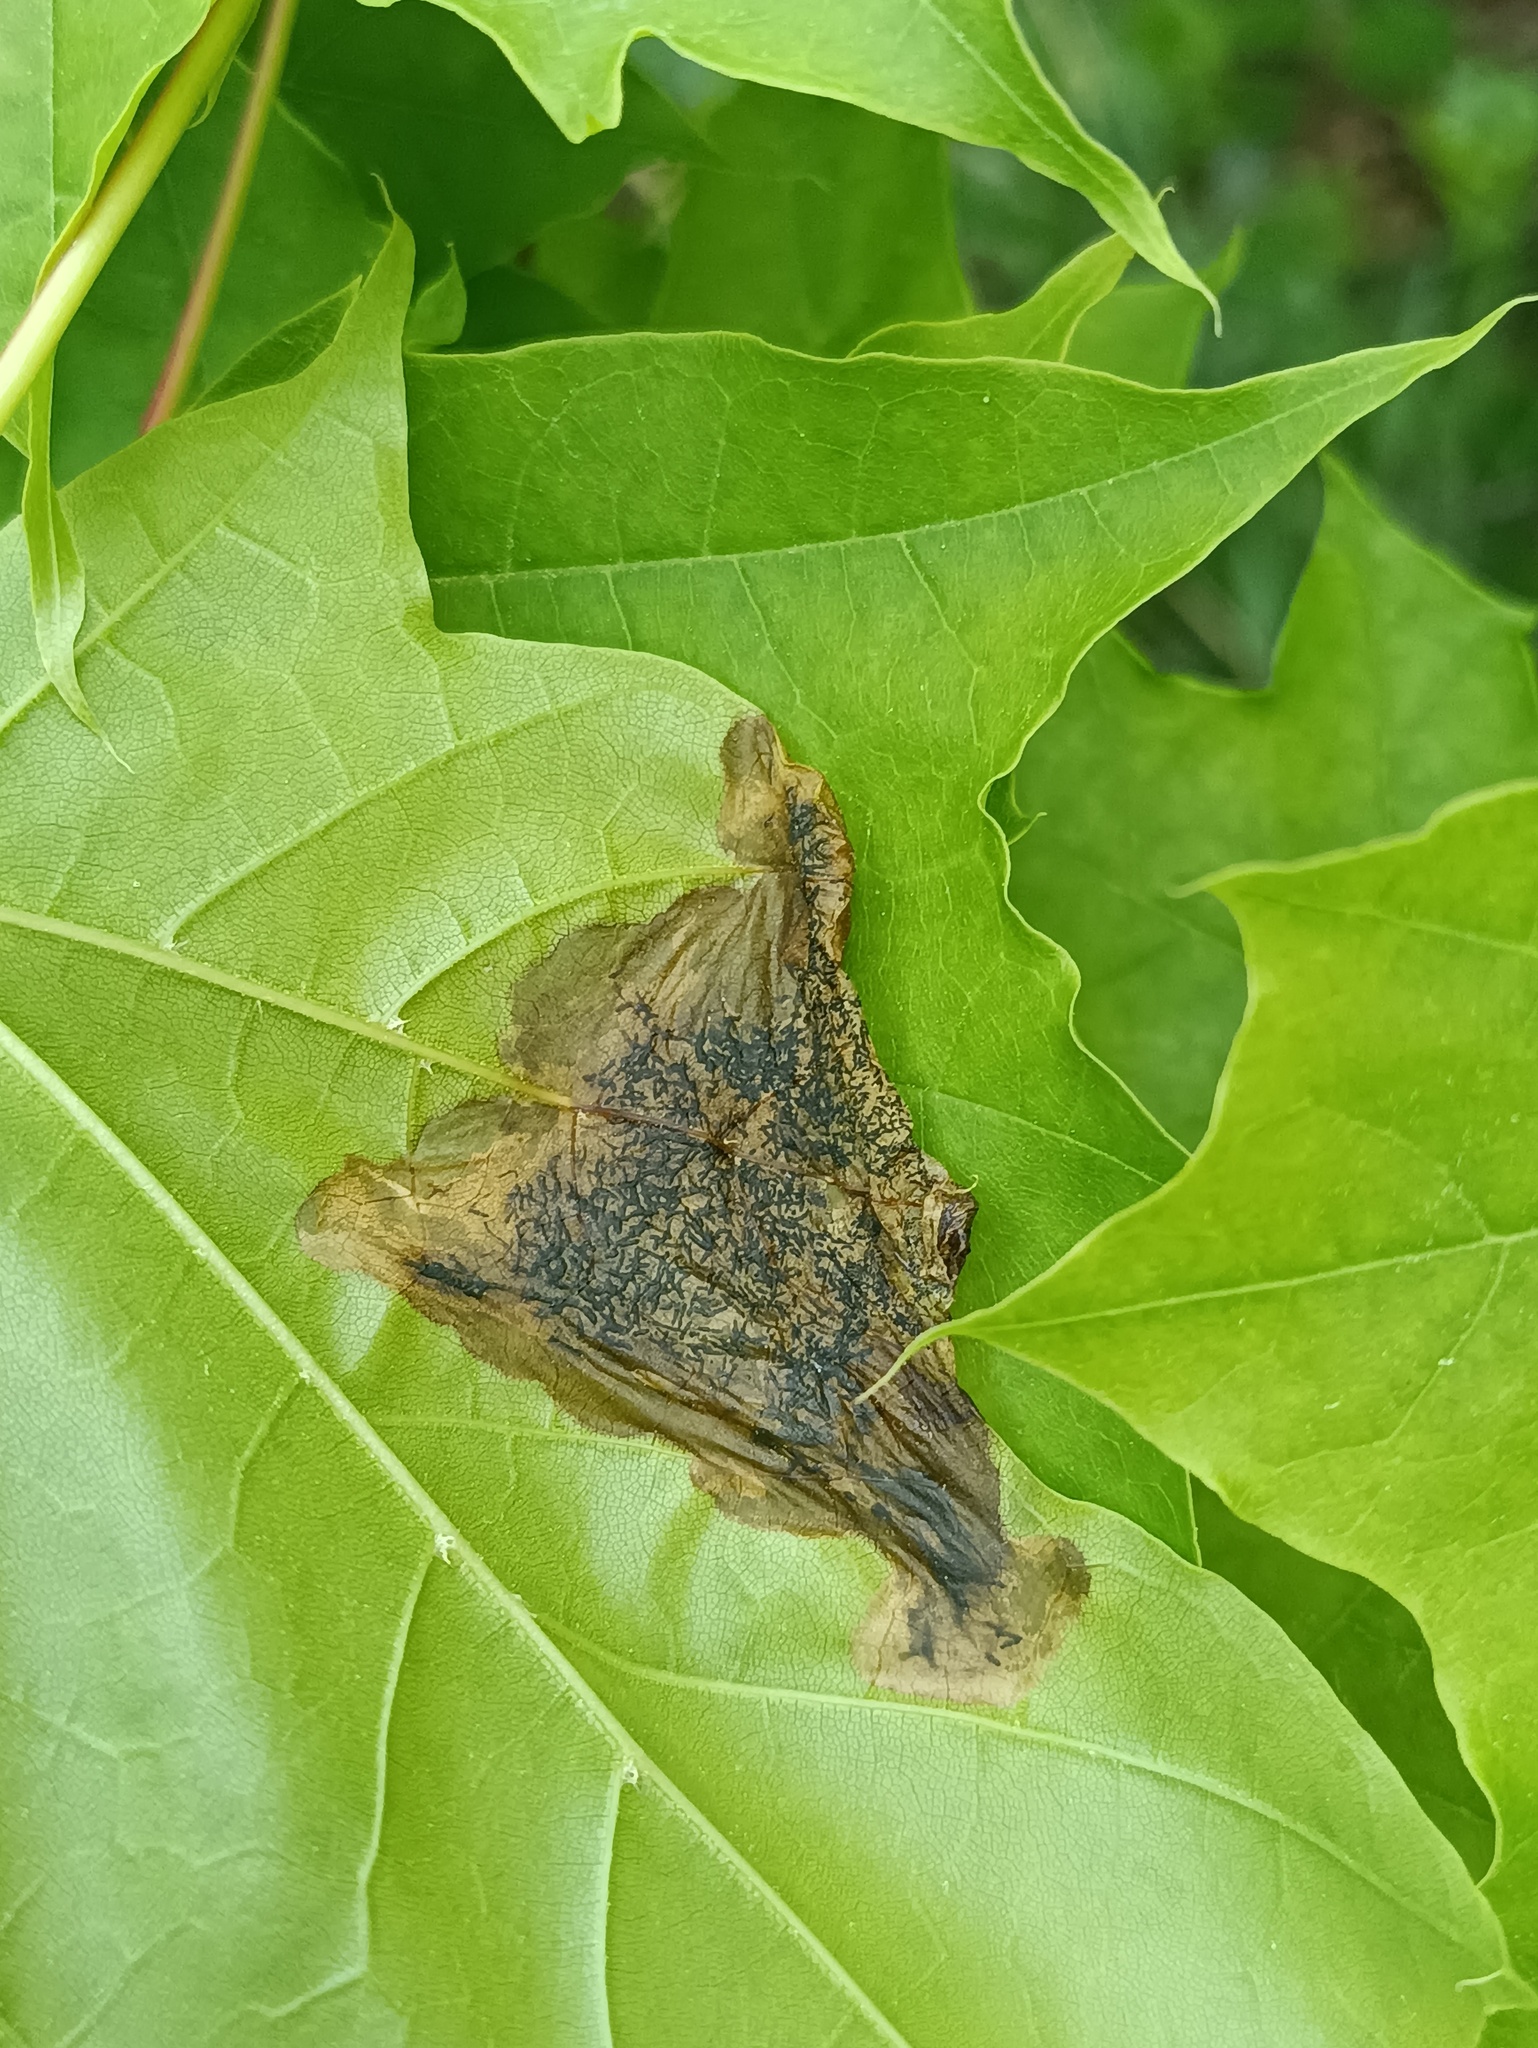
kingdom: Fungi
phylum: Ascomycota
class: Leotiomycetes
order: Rhytismatales
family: Rhytismataceae
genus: Rhytisma
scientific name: Rhytisma acerinum
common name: European tar spot
